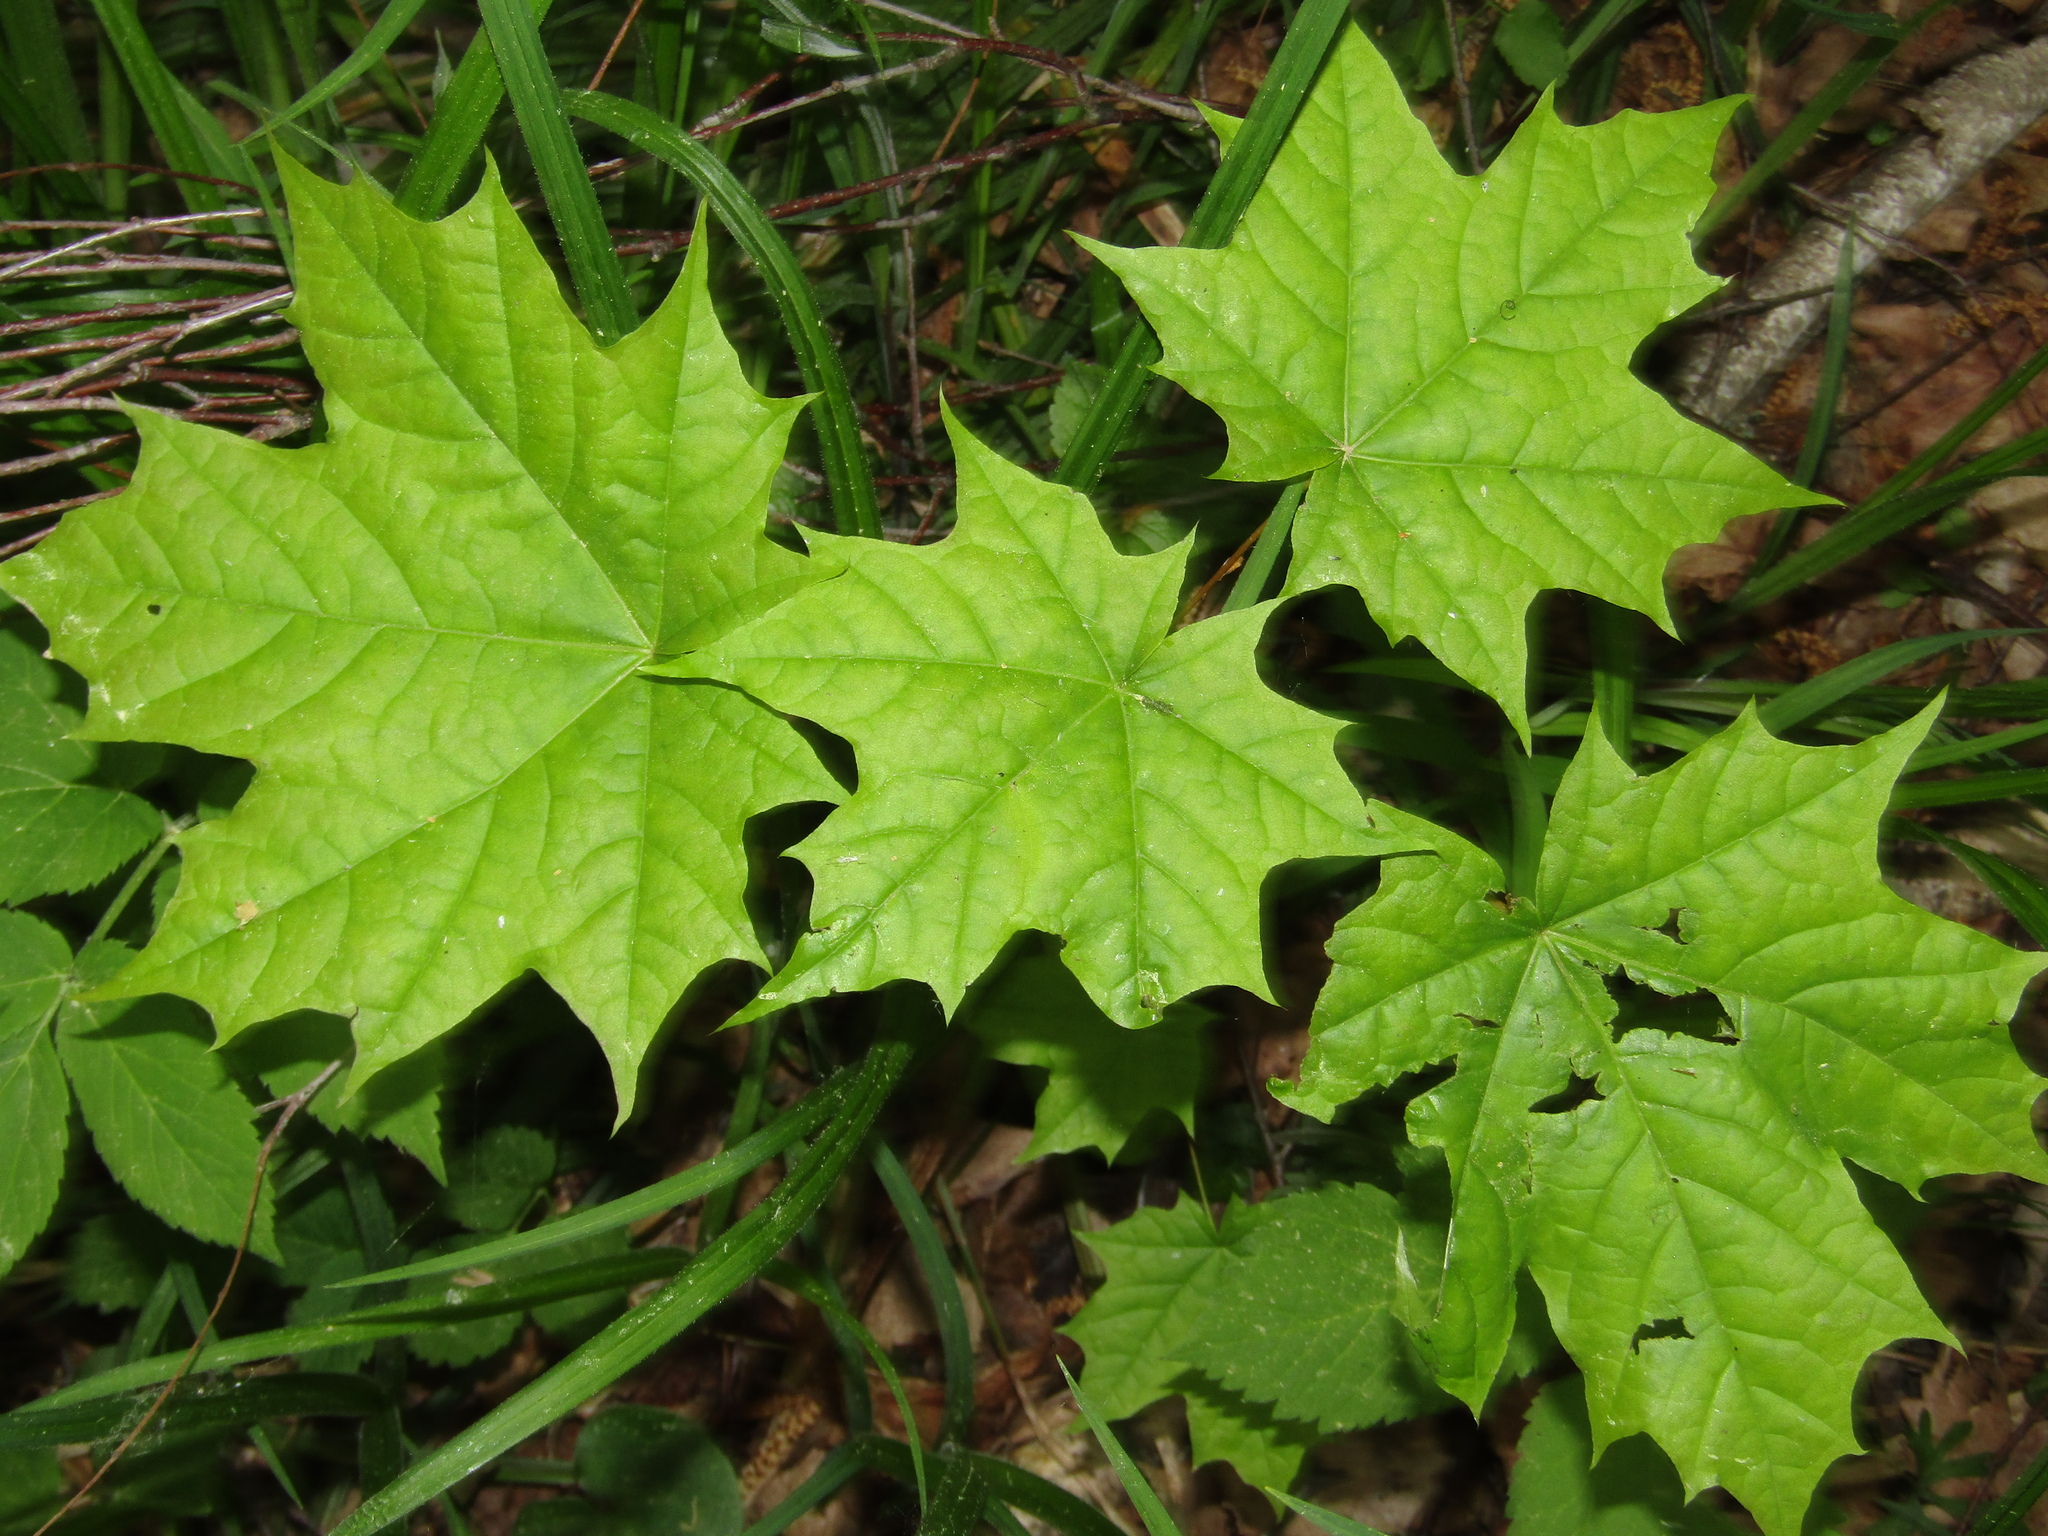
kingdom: Plantae
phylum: Tracheophyta
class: Magnoliopsida
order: Sapindales
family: Sapindaceae
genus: Acer
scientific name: Acer platanoides
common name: Norway maple
